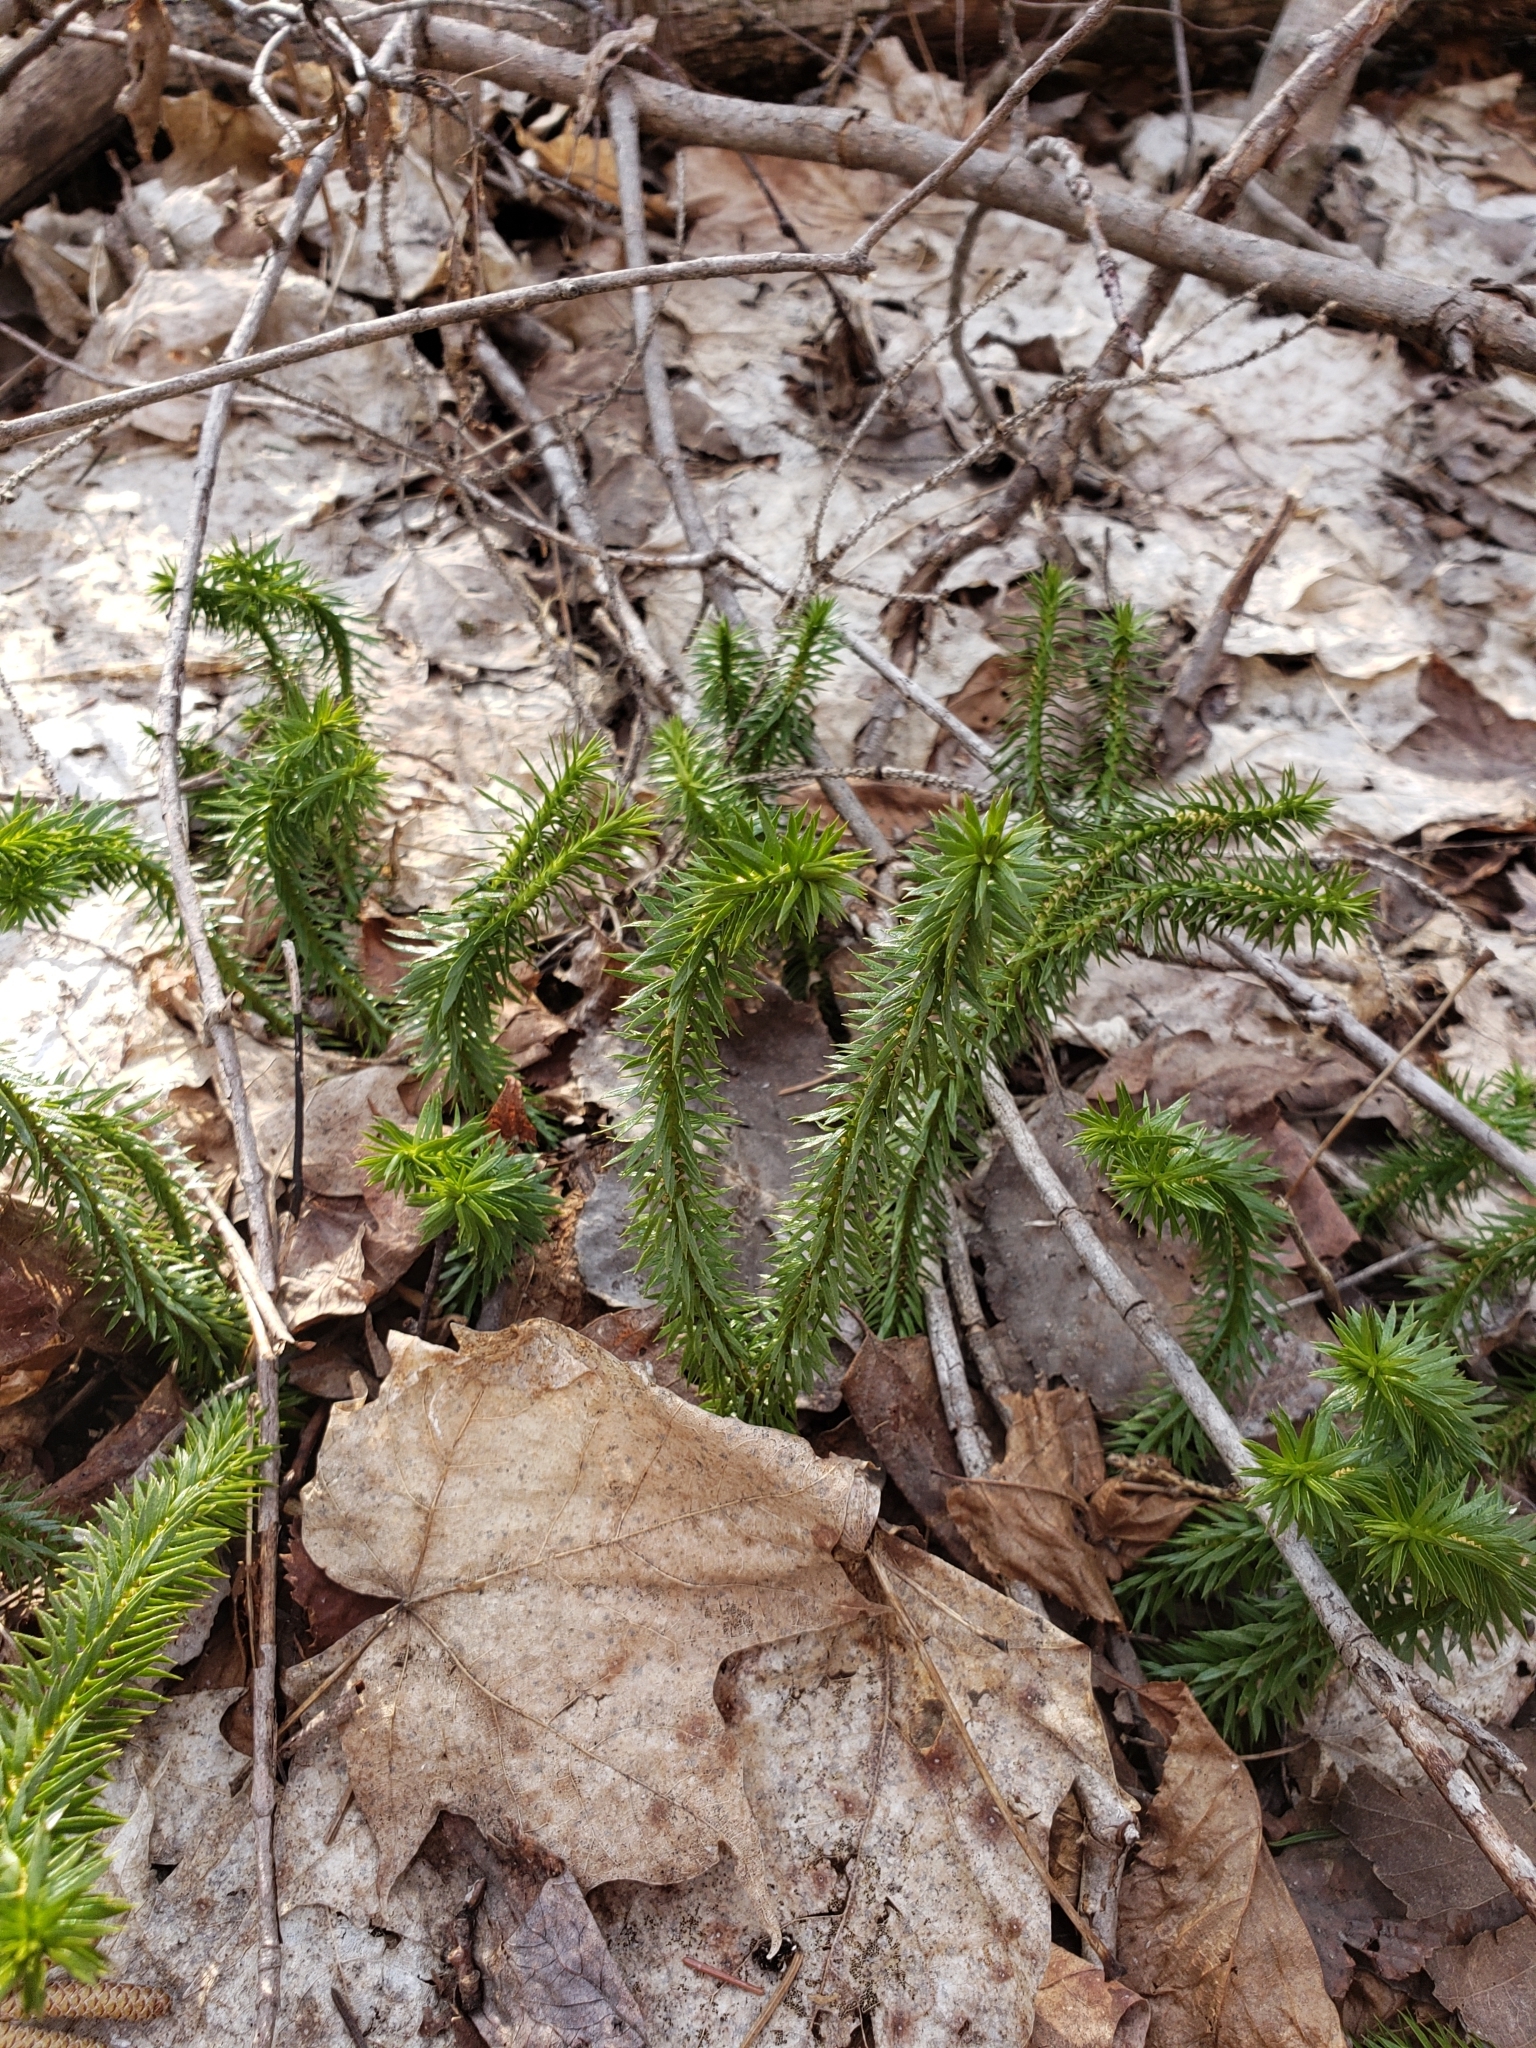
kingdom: Plantae
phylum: Tracheophyta
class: Lycopodiopsida
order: Lycopodiales
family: Lycopodiaceae
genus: Huperzia
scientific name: Huperzia lucidula
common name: Shining clubmoss
